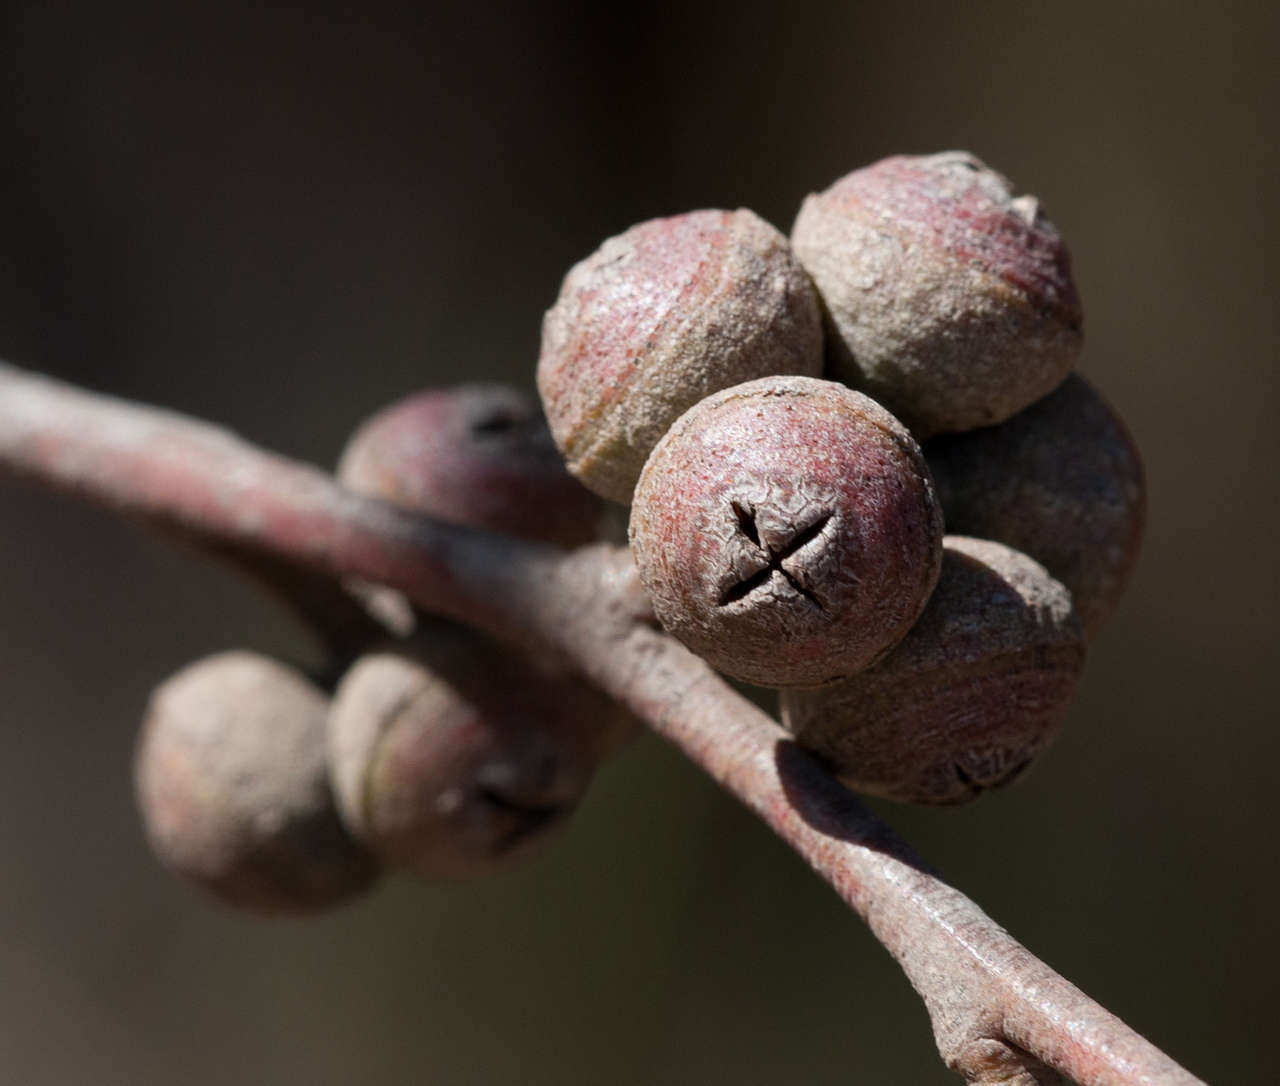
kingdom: Plantae
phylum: Tracheophyta
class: Magnoliopsida
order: Myrtales
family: Myrtaceae
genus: Eucalyptus
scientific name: Eucalyptus baxteri
